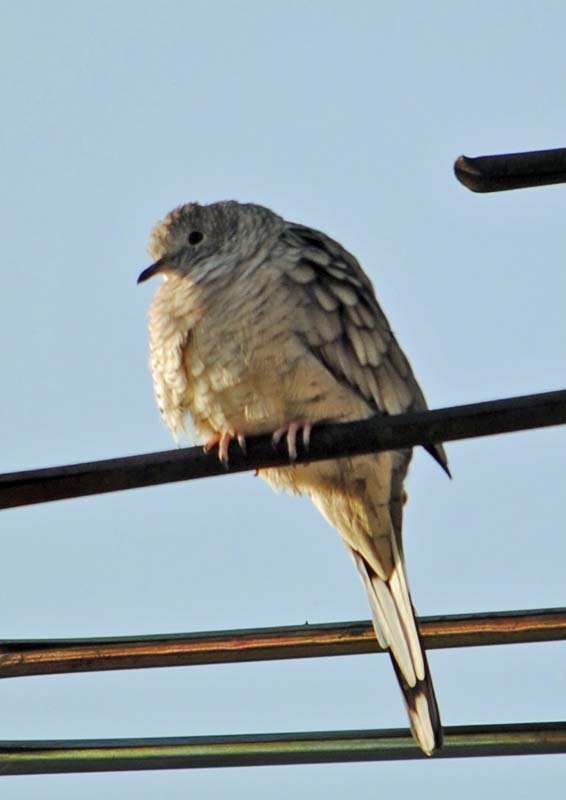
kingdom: Animalia
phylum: Chordata
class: Aves
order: Columbiformes
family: Columbidae
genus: Columbina
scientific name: Columbina inca
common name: Inca dove
